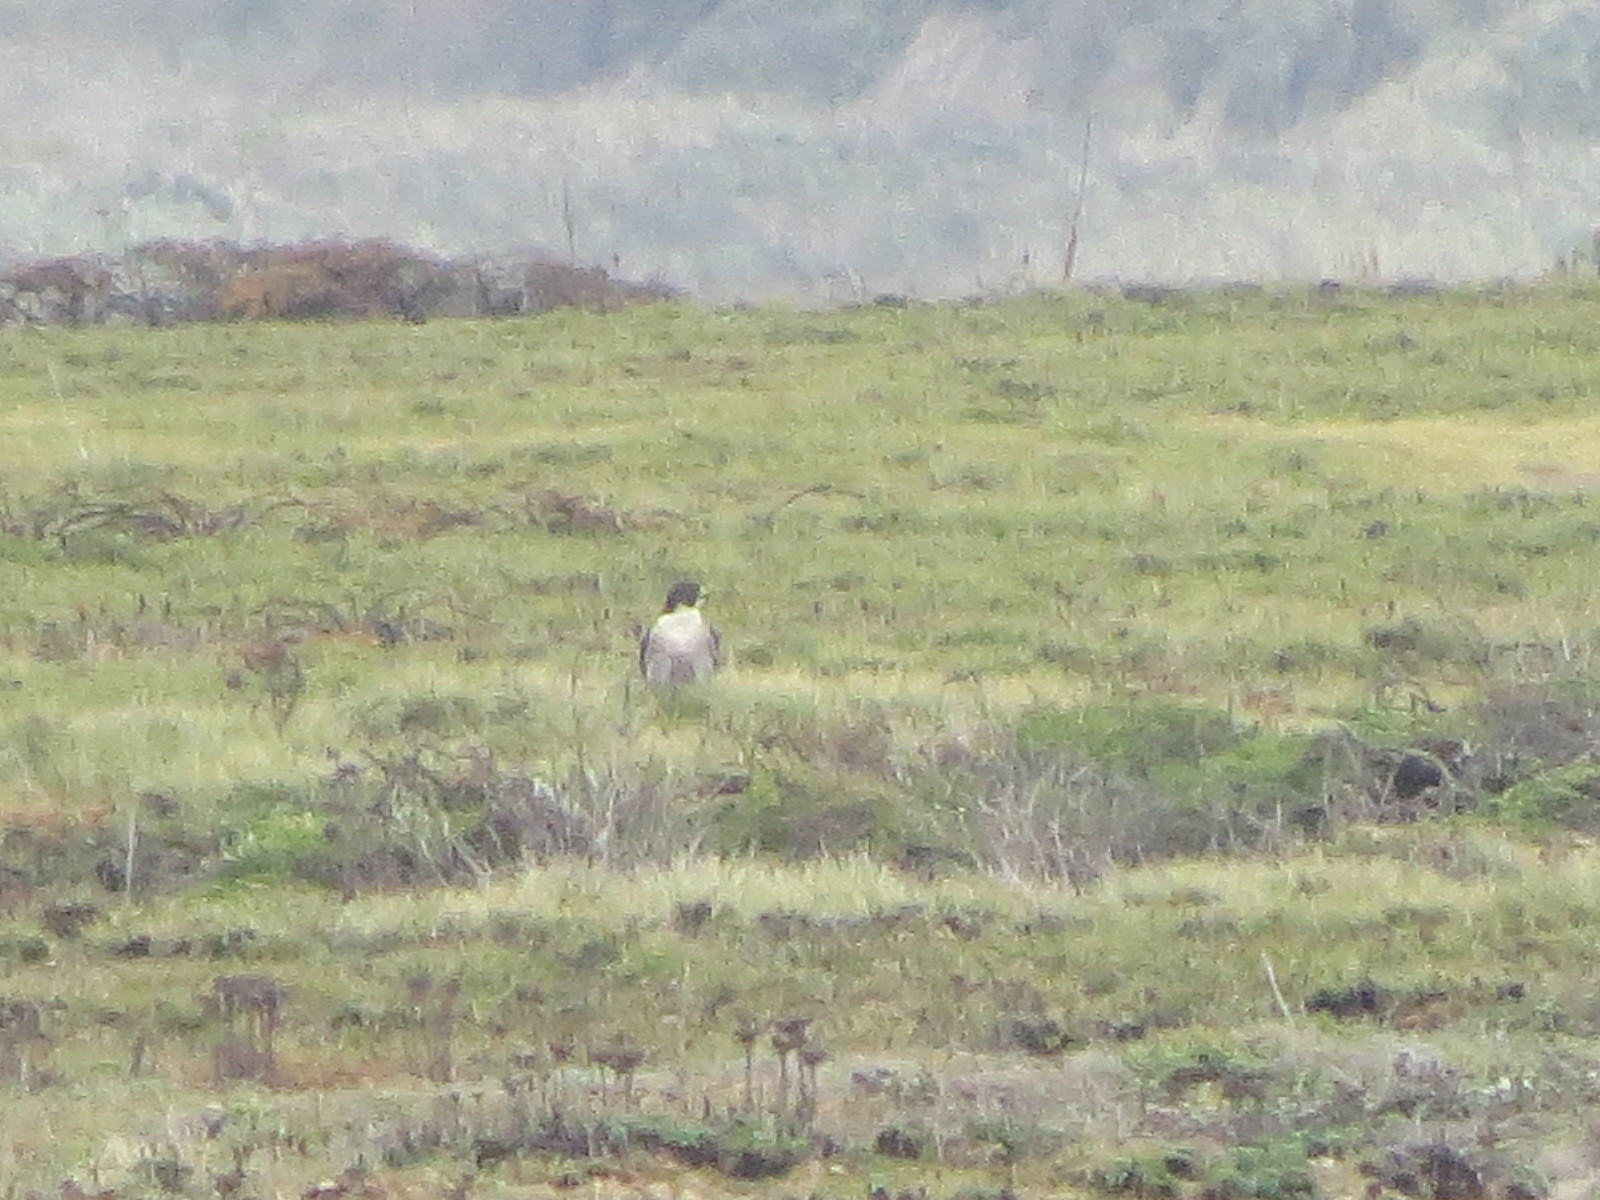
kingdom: Animalia
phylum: Chordata
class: Aves
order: Falconiformes
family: Falconidae
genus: Falco
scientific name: Falco peregrinus
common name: Peregrine falcon
